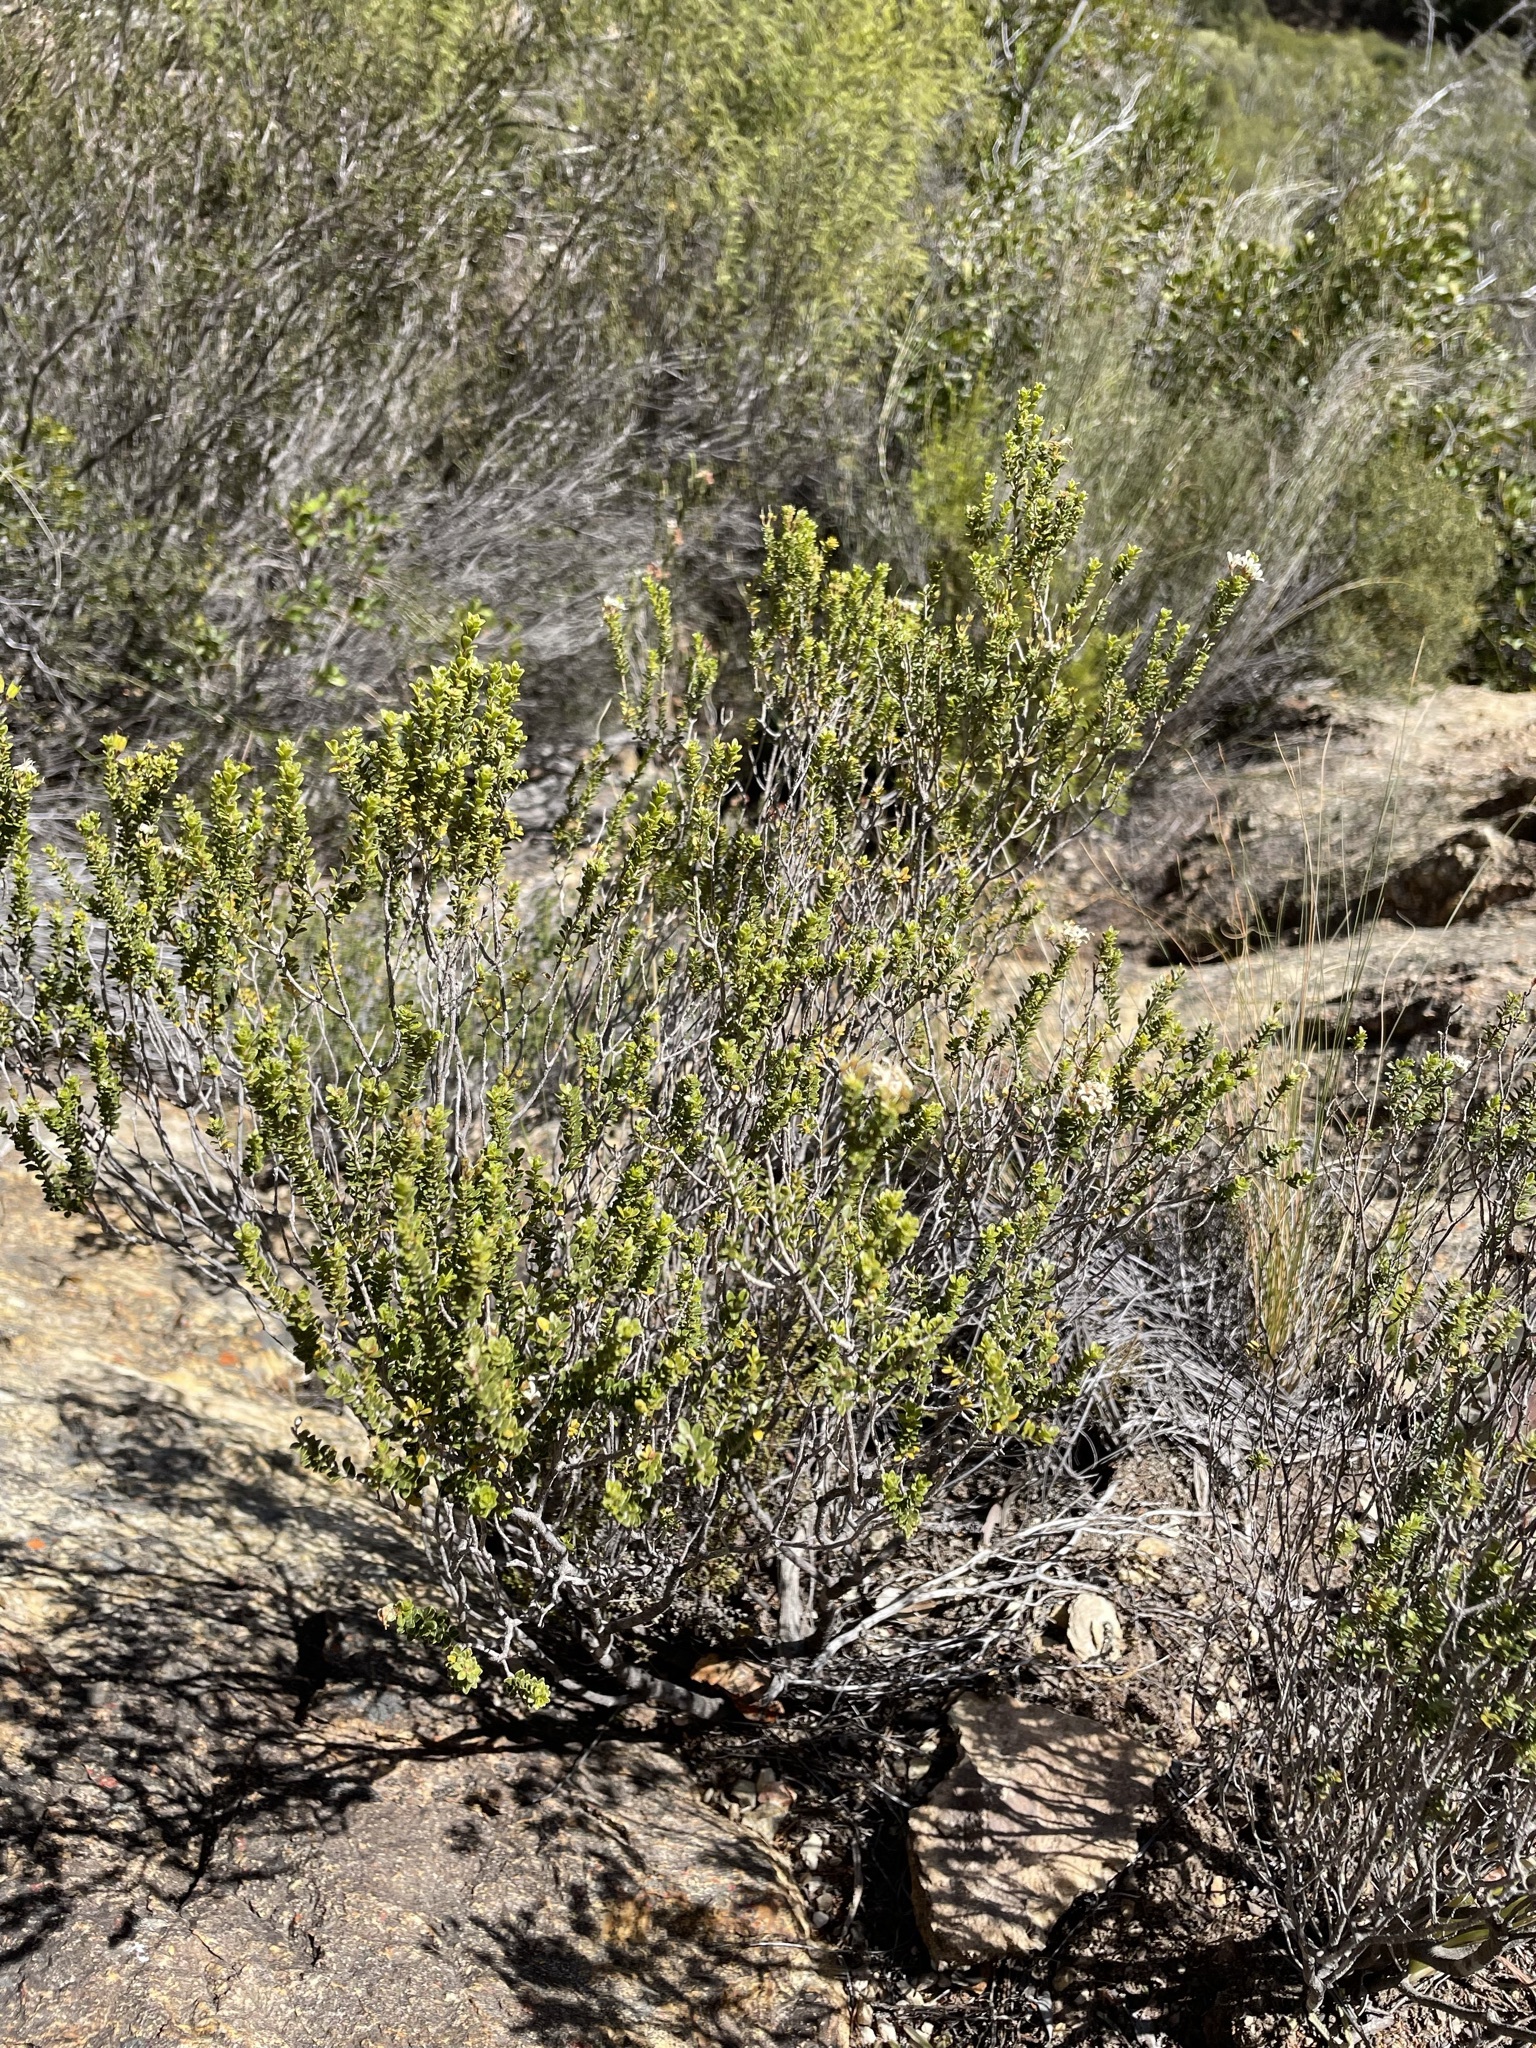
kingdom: Plantae
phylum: Tracheophyta
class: Magnoliopsida
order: Sapindales
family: Rutaceae
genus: Agathosma
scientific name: Agathosma recurvifolia
